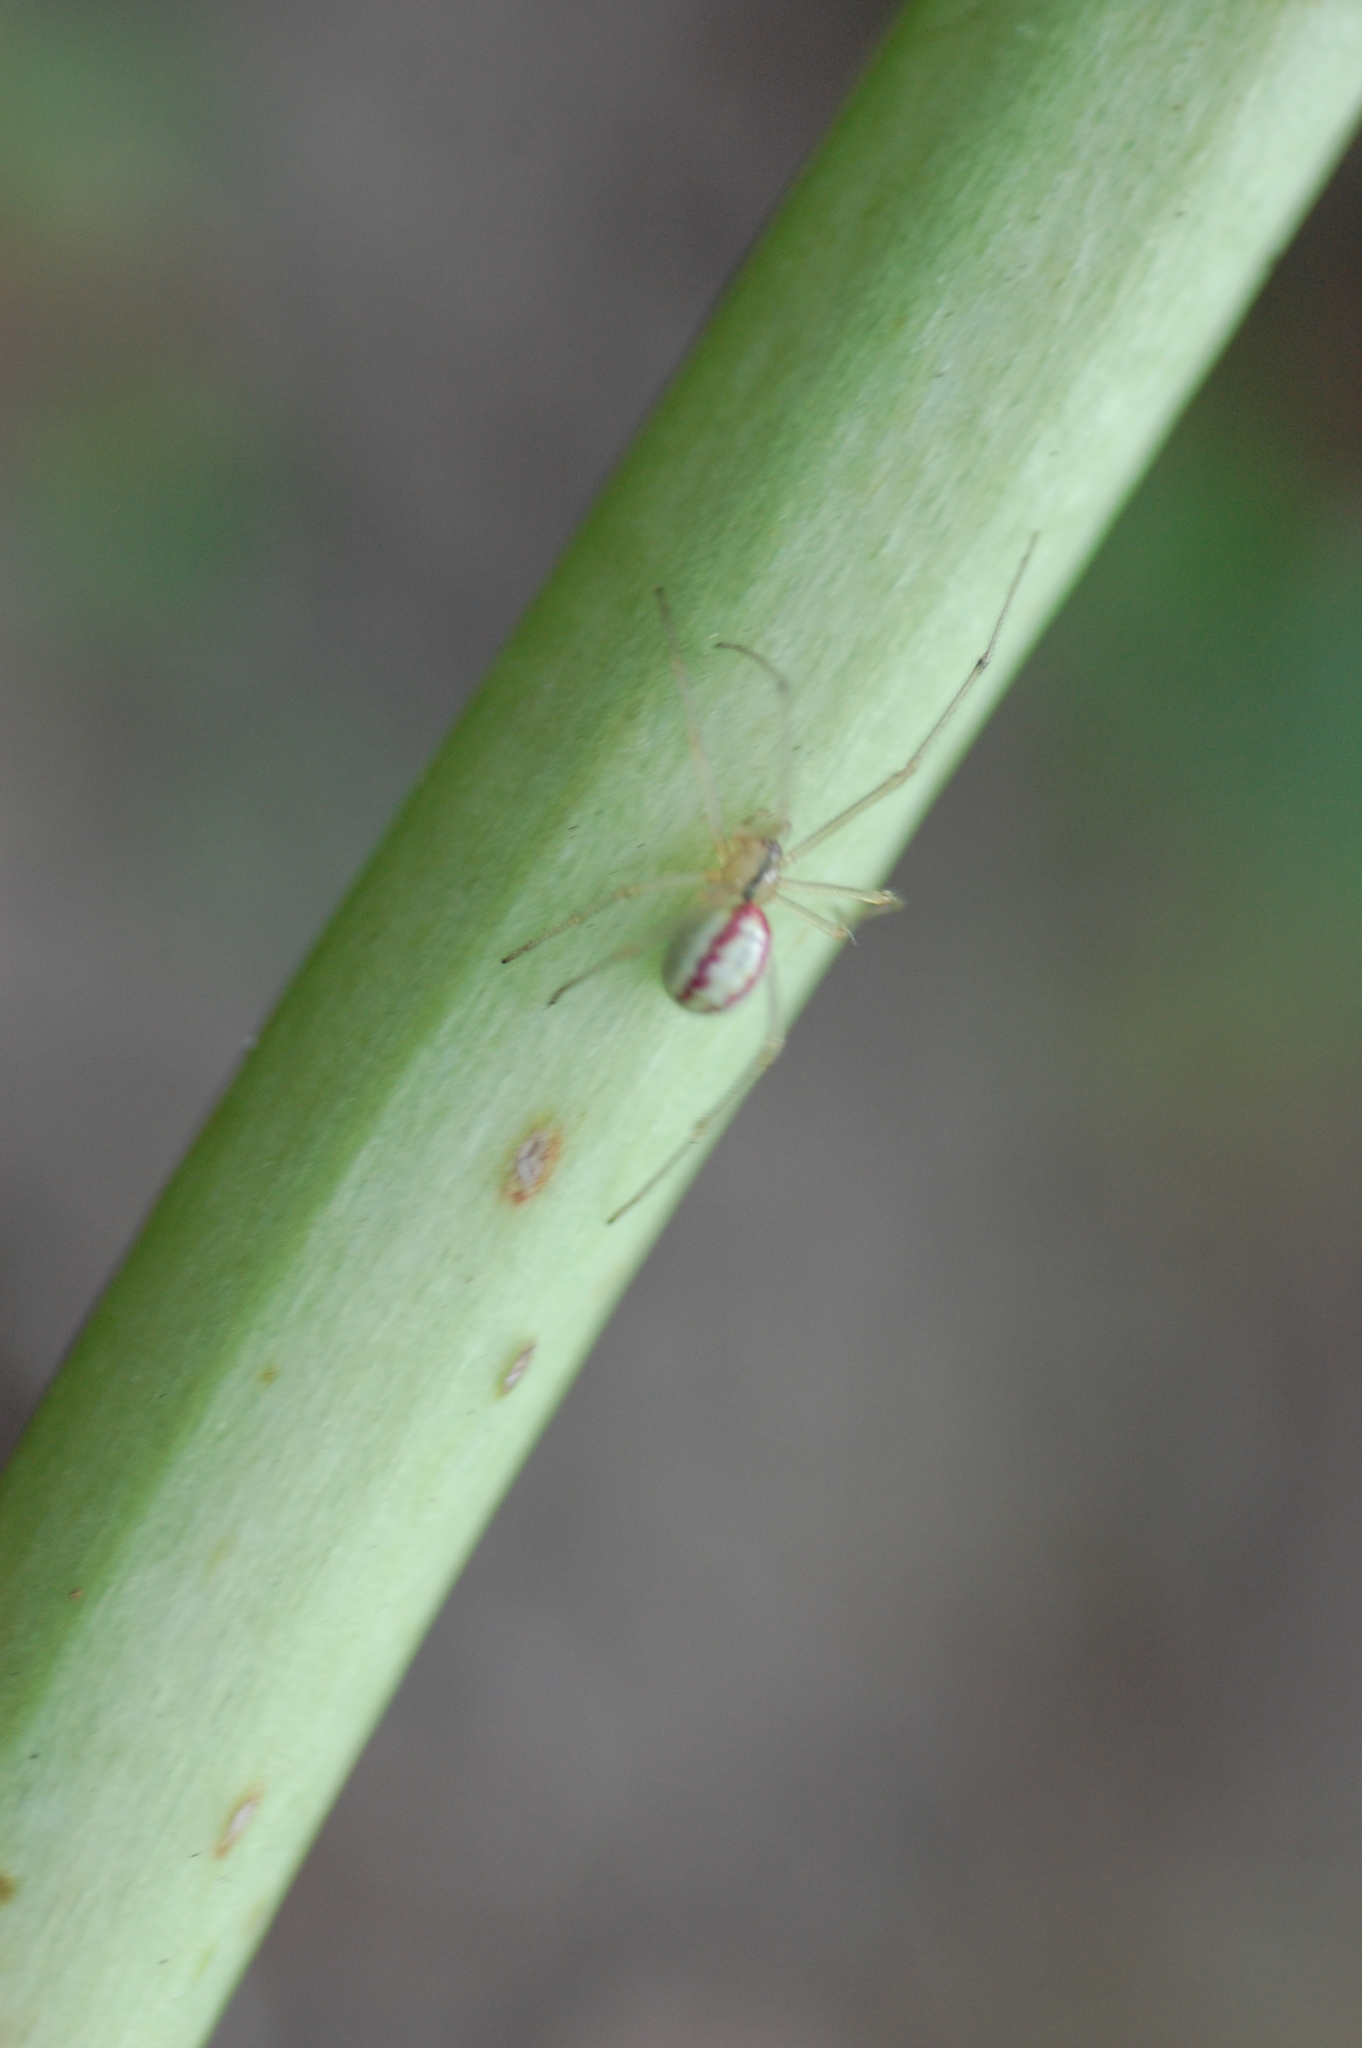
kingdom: Animalia
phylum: Arthropoda
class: Arachnida
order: Araneae
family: Theridiidae
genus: Enoplognatha
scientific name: Enoplognatha ovata
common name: Common candy-striped spider
